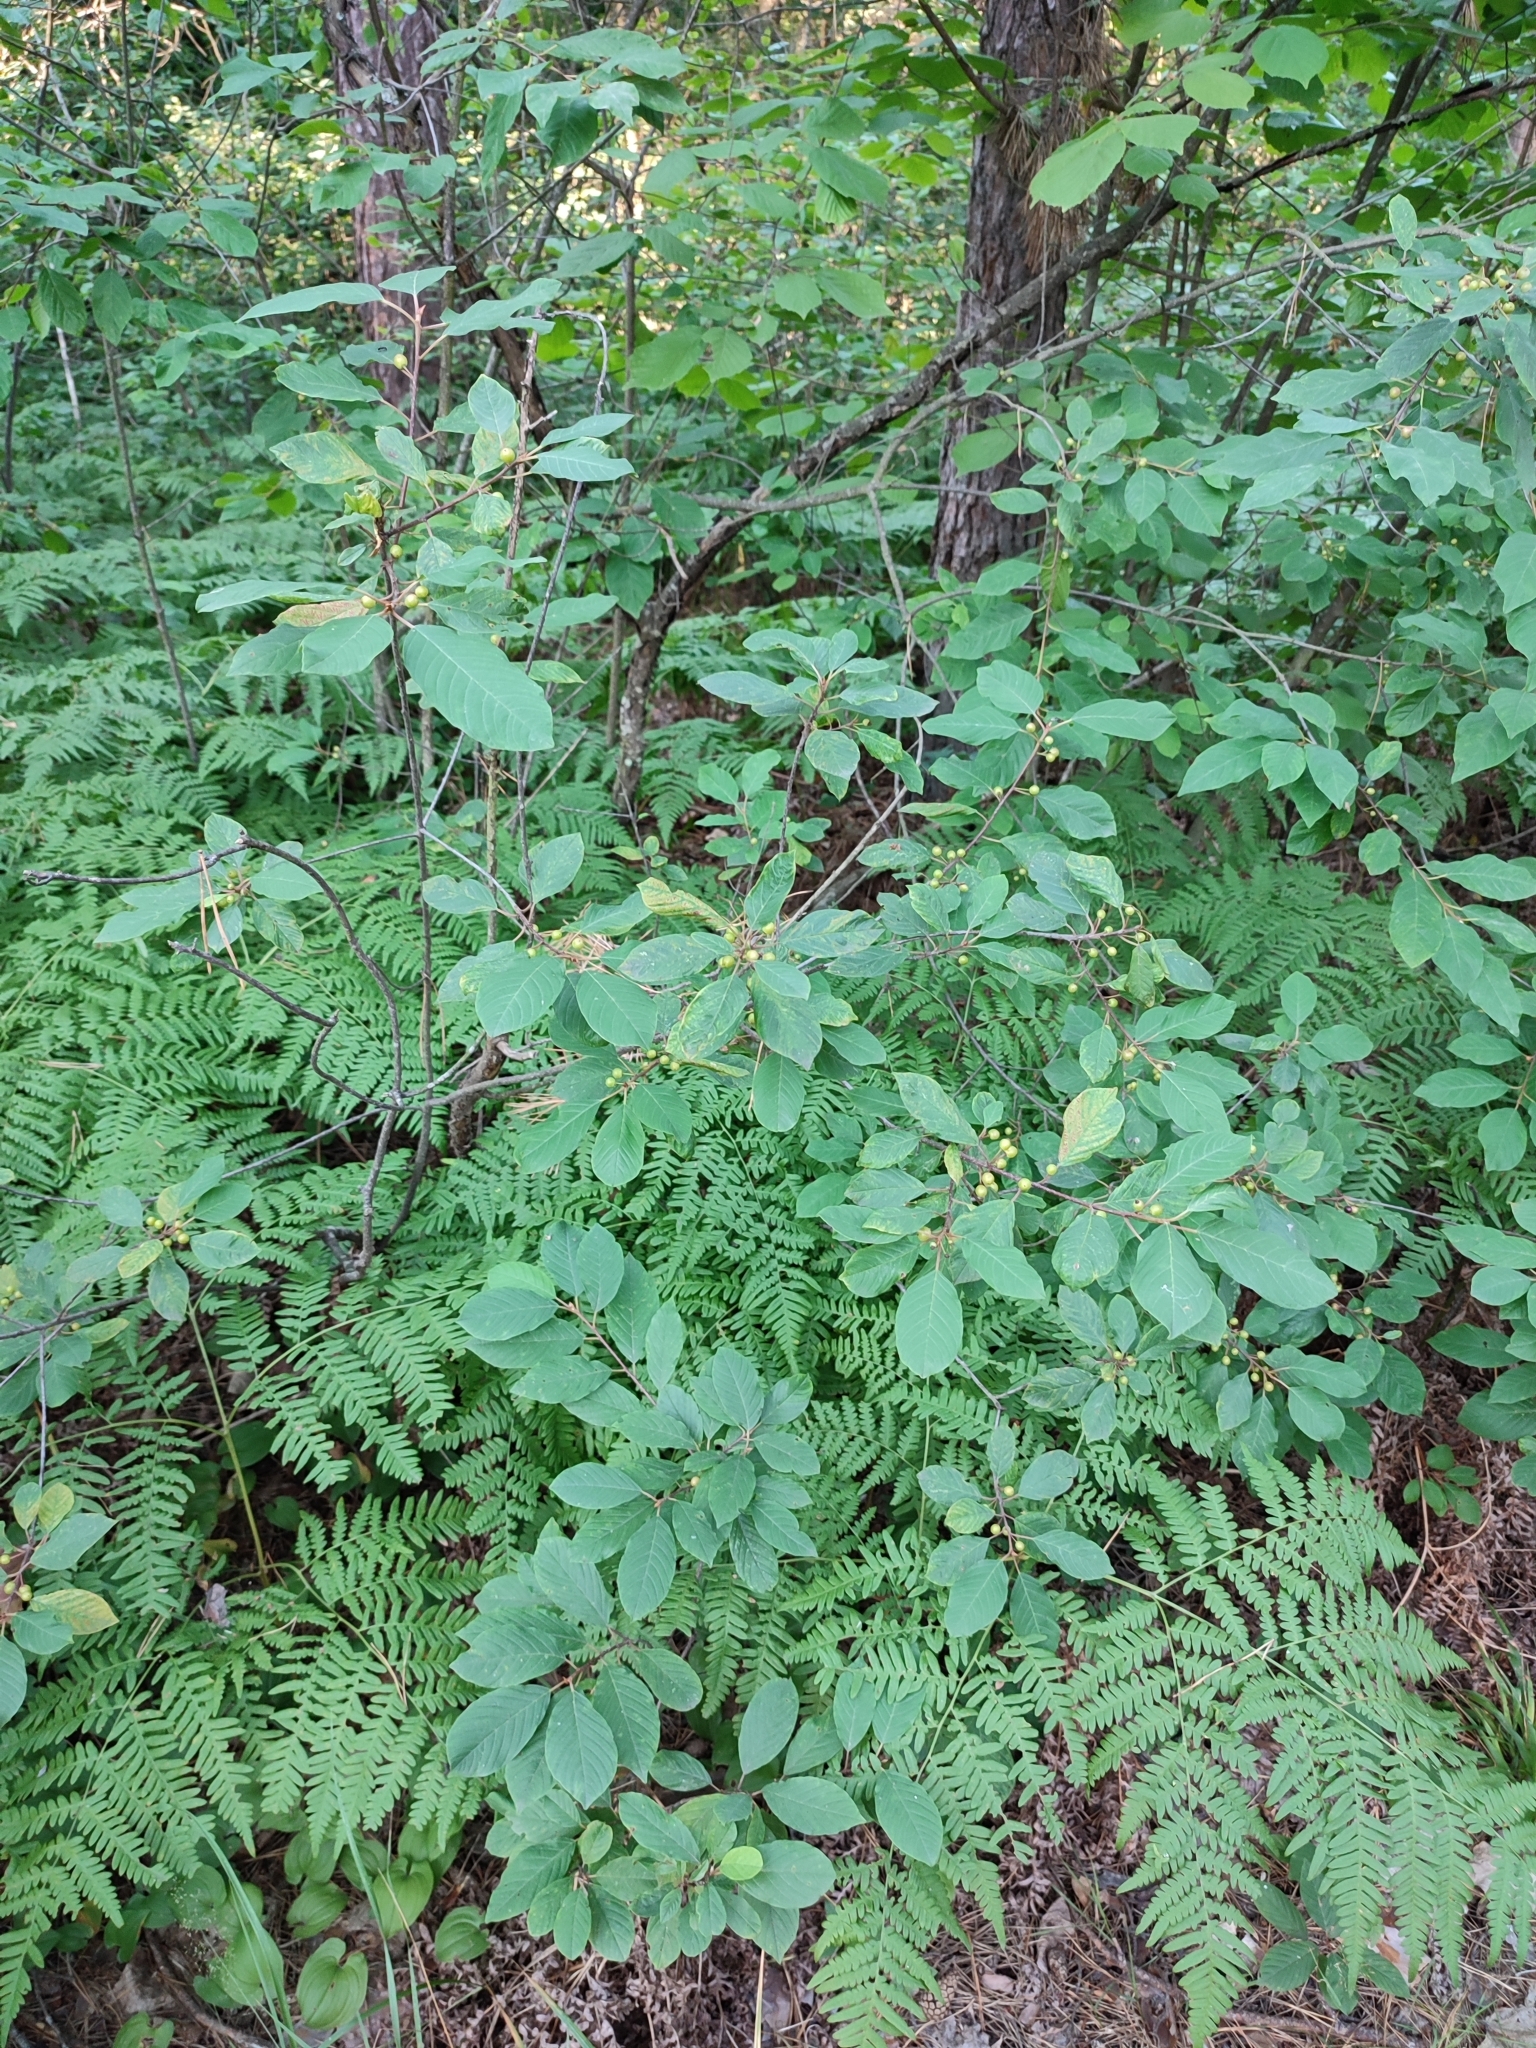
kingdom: Plantae
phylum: Tracheophyta
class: Magnoliopsida
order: Rosales
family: Rhamnaceae
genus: Frangula
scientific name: Frangula alnus
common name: Alder buckthorn
